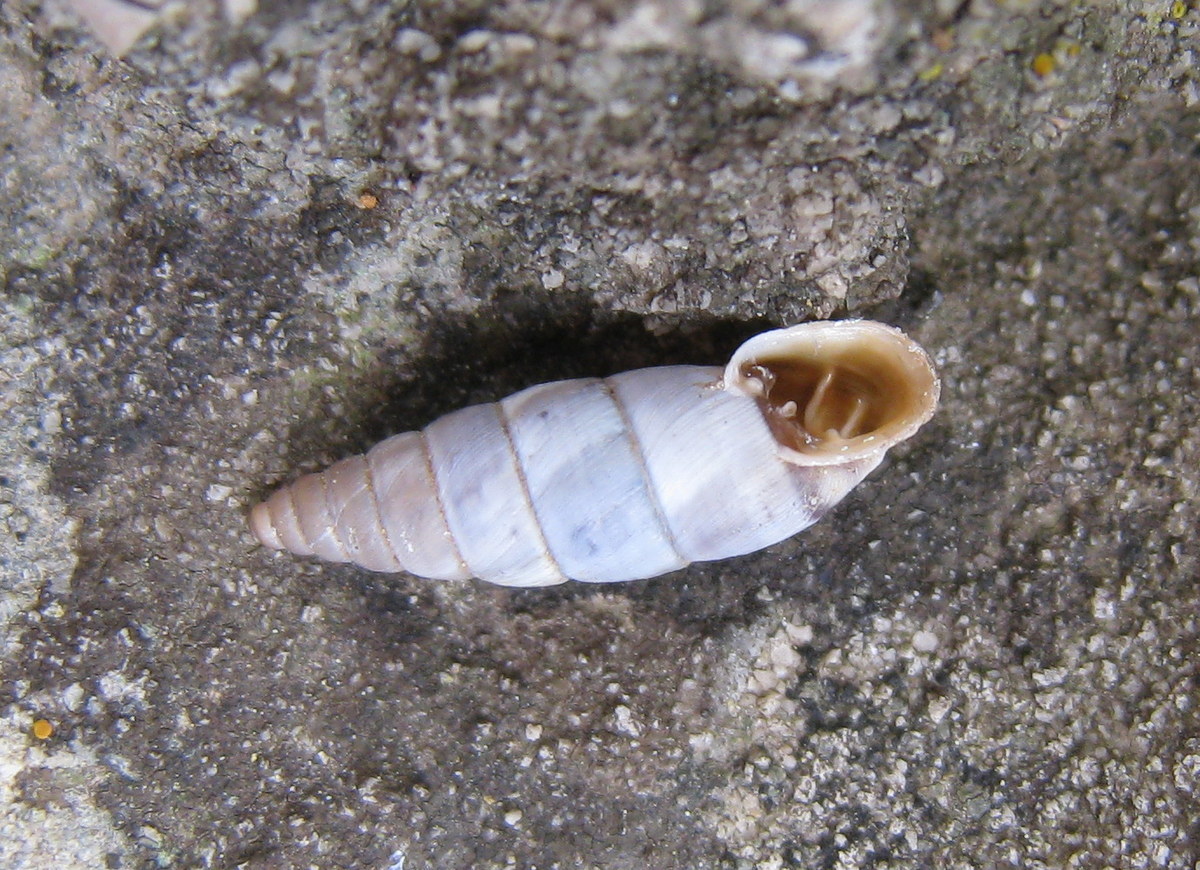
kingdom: Animalia
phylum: Mollusca
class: Gastropoda
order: Stylommatophora
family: Chondrinidae
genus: Solatopupa
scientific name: Solatopupa similis
